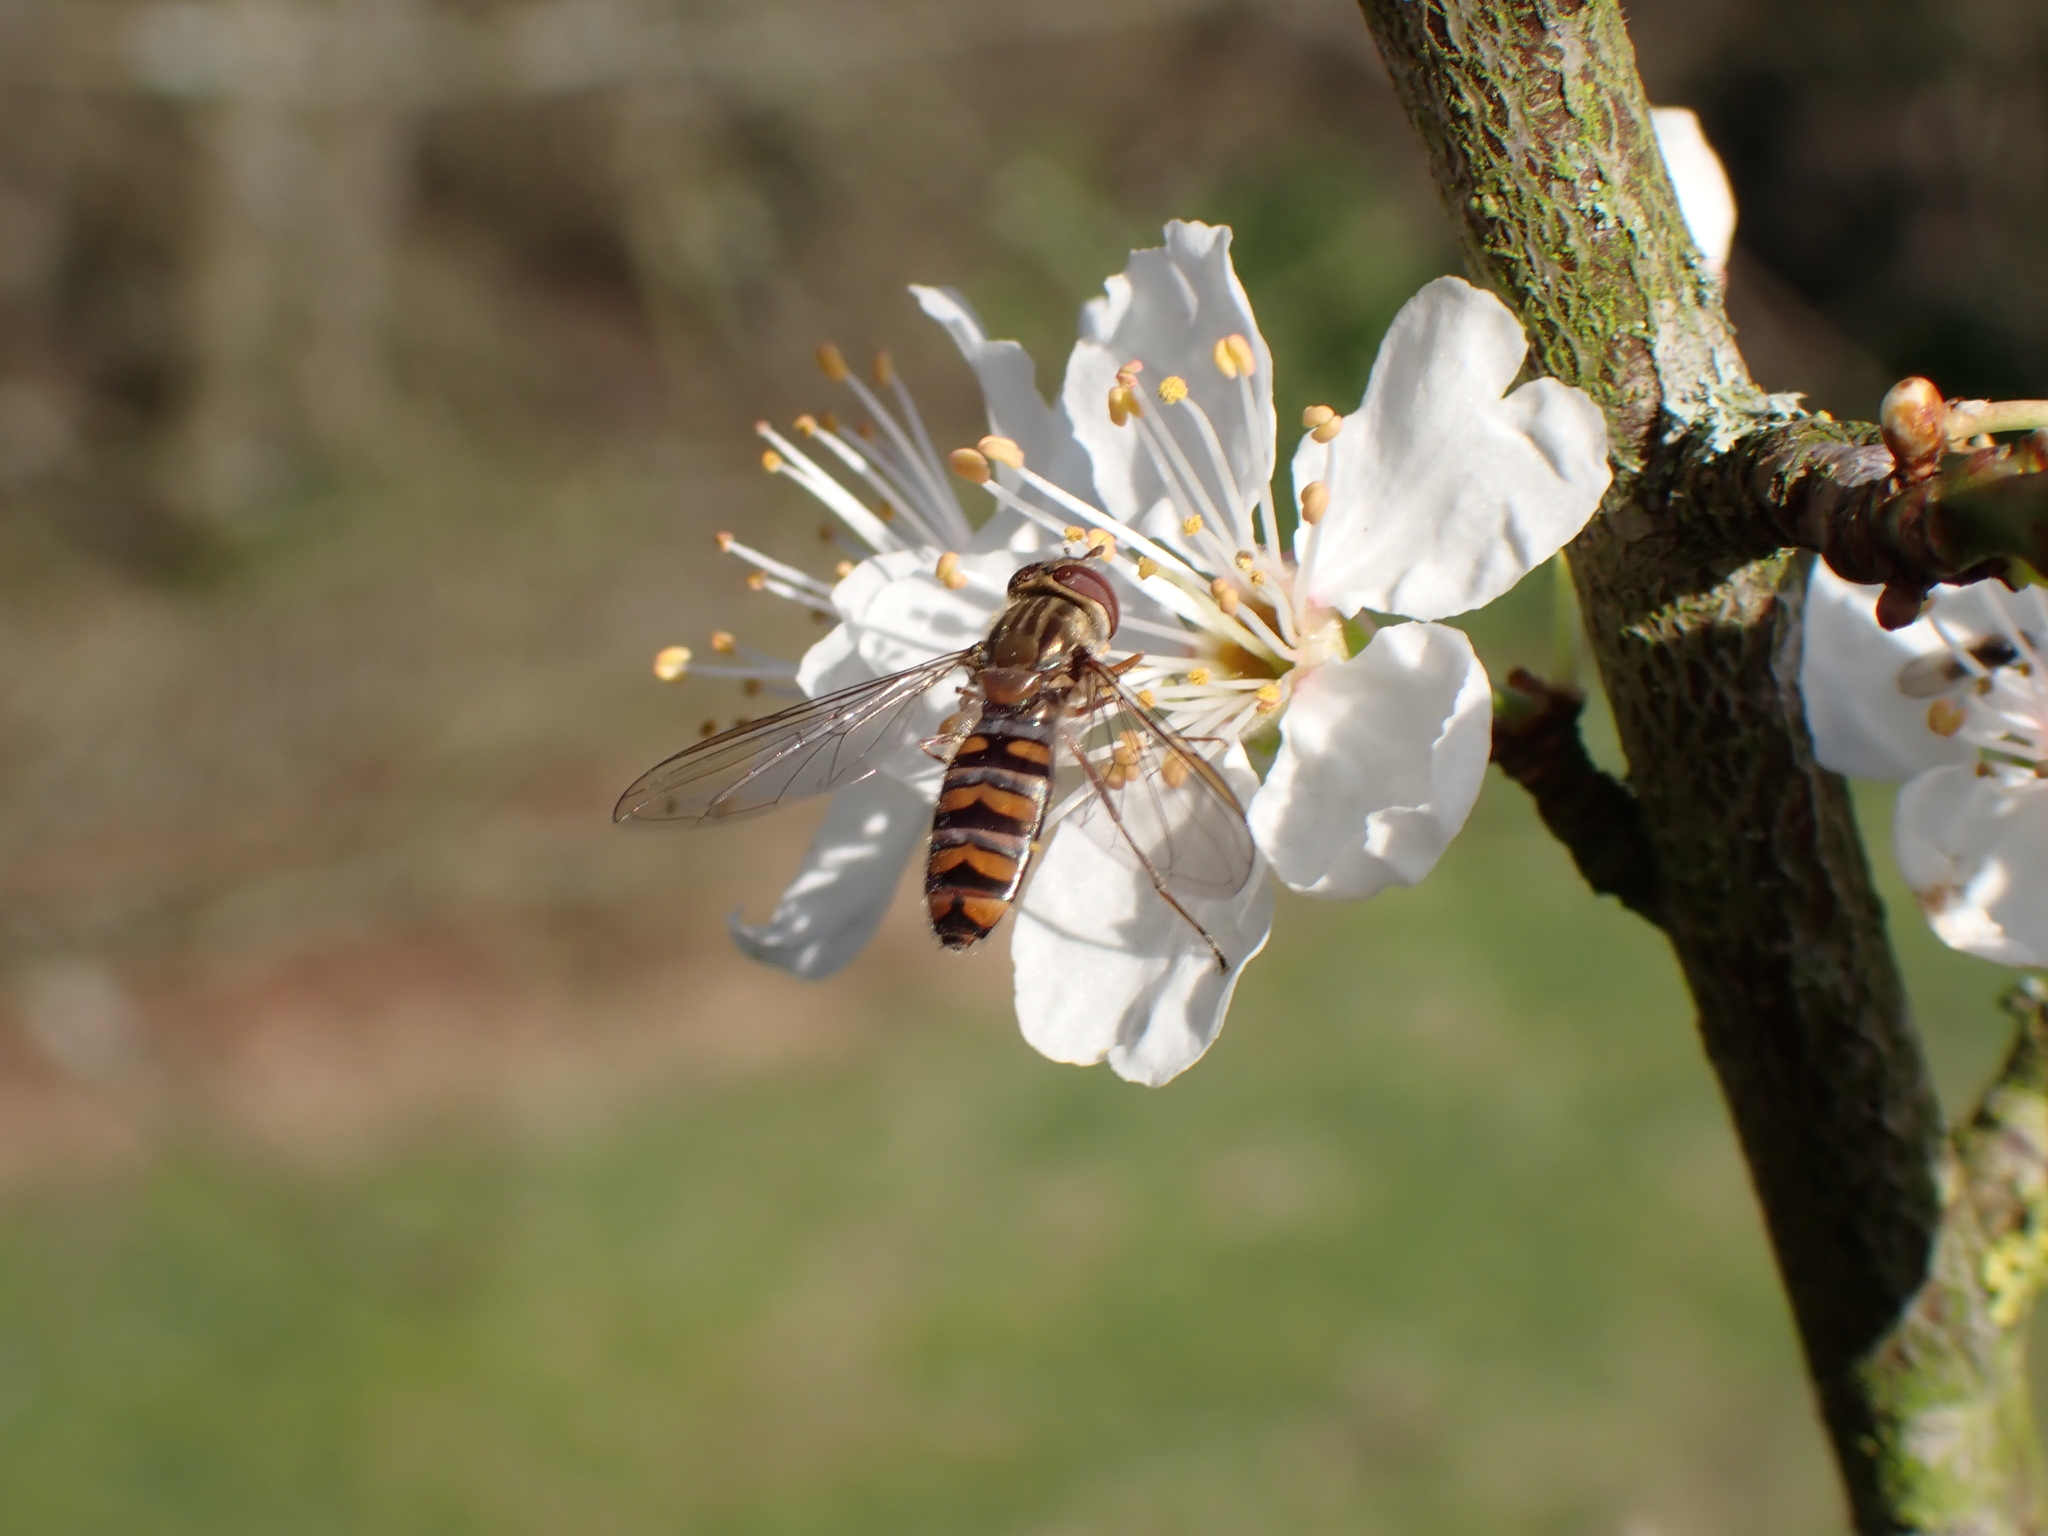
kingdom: Animalia
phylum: Arthropoda
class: Insecta
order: Diptera
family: Syrphidae
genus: Episyrphus
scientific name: Episyrphus balteatus
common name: Marmalade hoverfly
